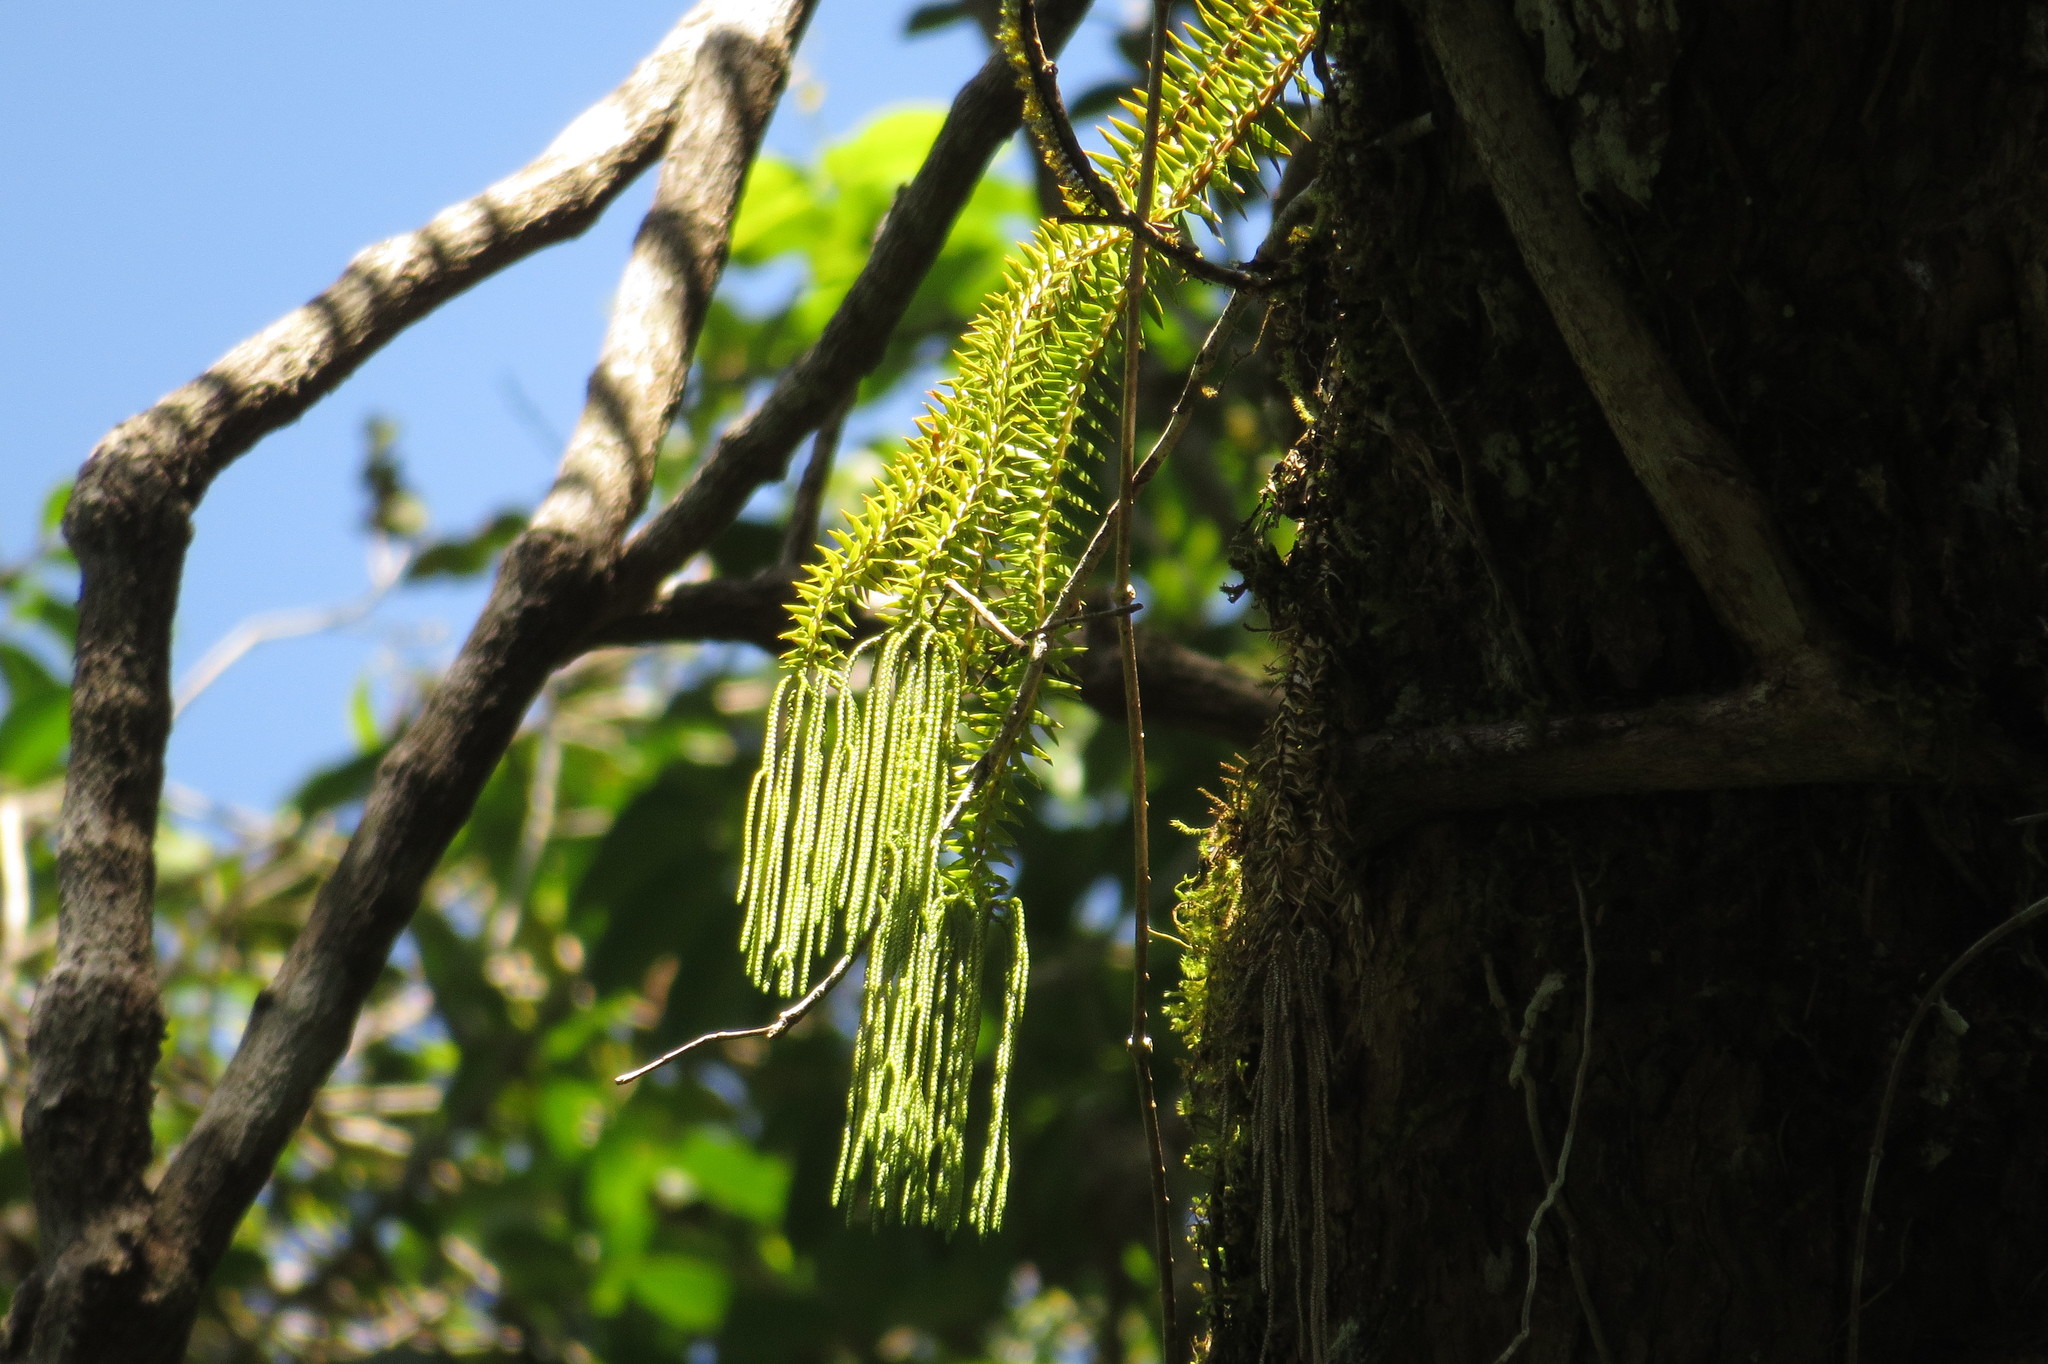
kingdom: Plantae
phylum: Tracheophyta
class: Lycopodiopsida
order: Lycopodiales
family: Lycopodiaceae
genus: Phlegmariurus
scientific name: Phlegmariurus phlegmaria
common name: Coarse tassel-fern
